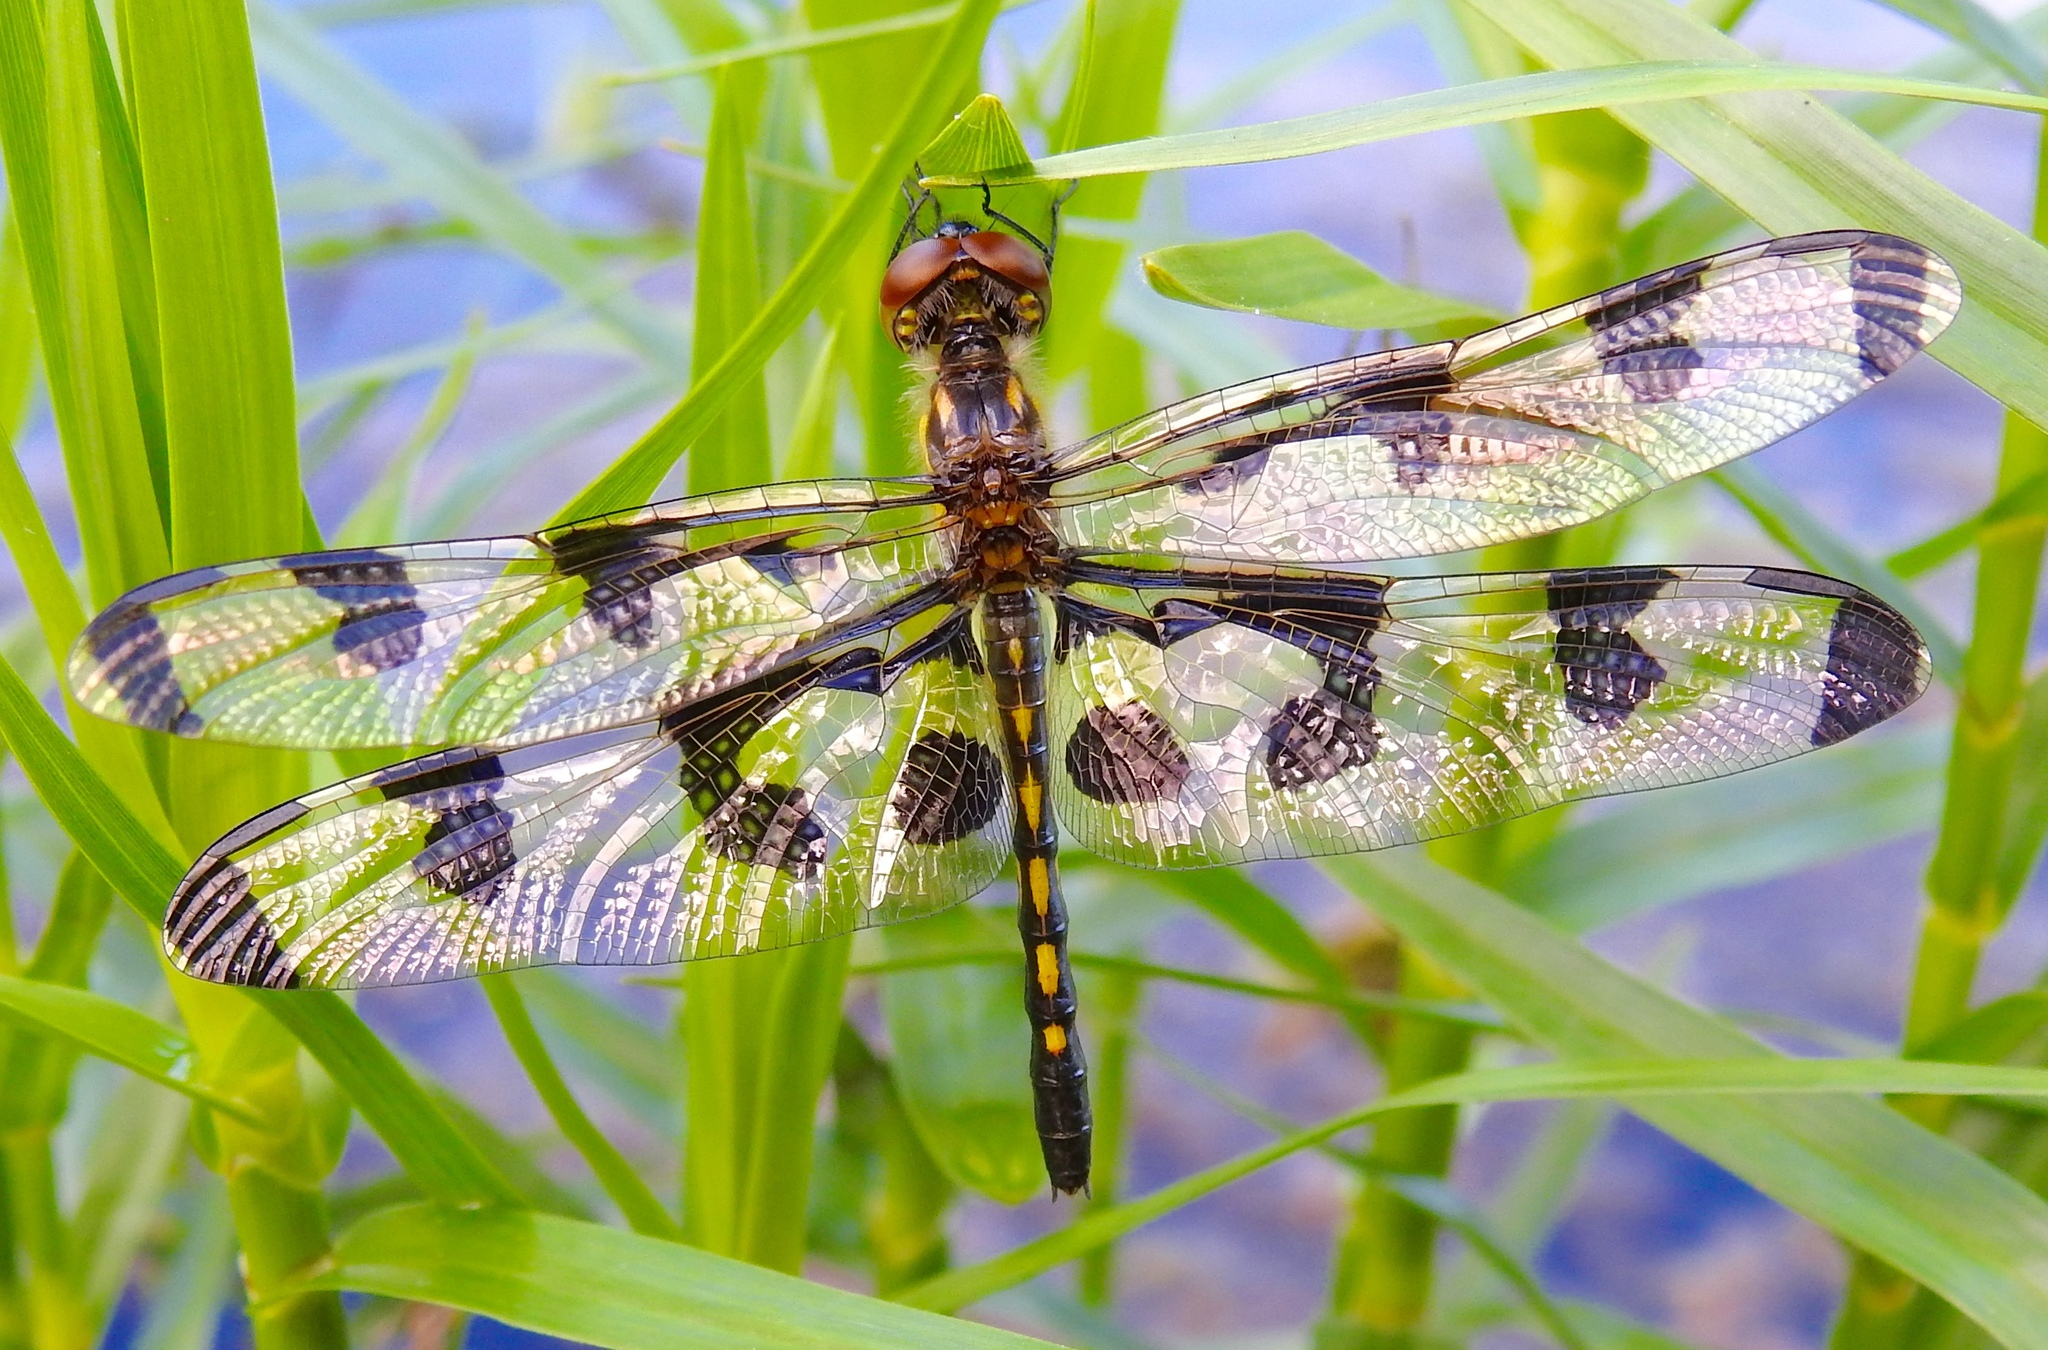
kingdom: Animalia
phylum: Arthropoda
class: Insecta
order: Odonata
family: Libellulidae
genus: Celithemis
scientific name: Celithemis fasciata
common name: Banded pennant
